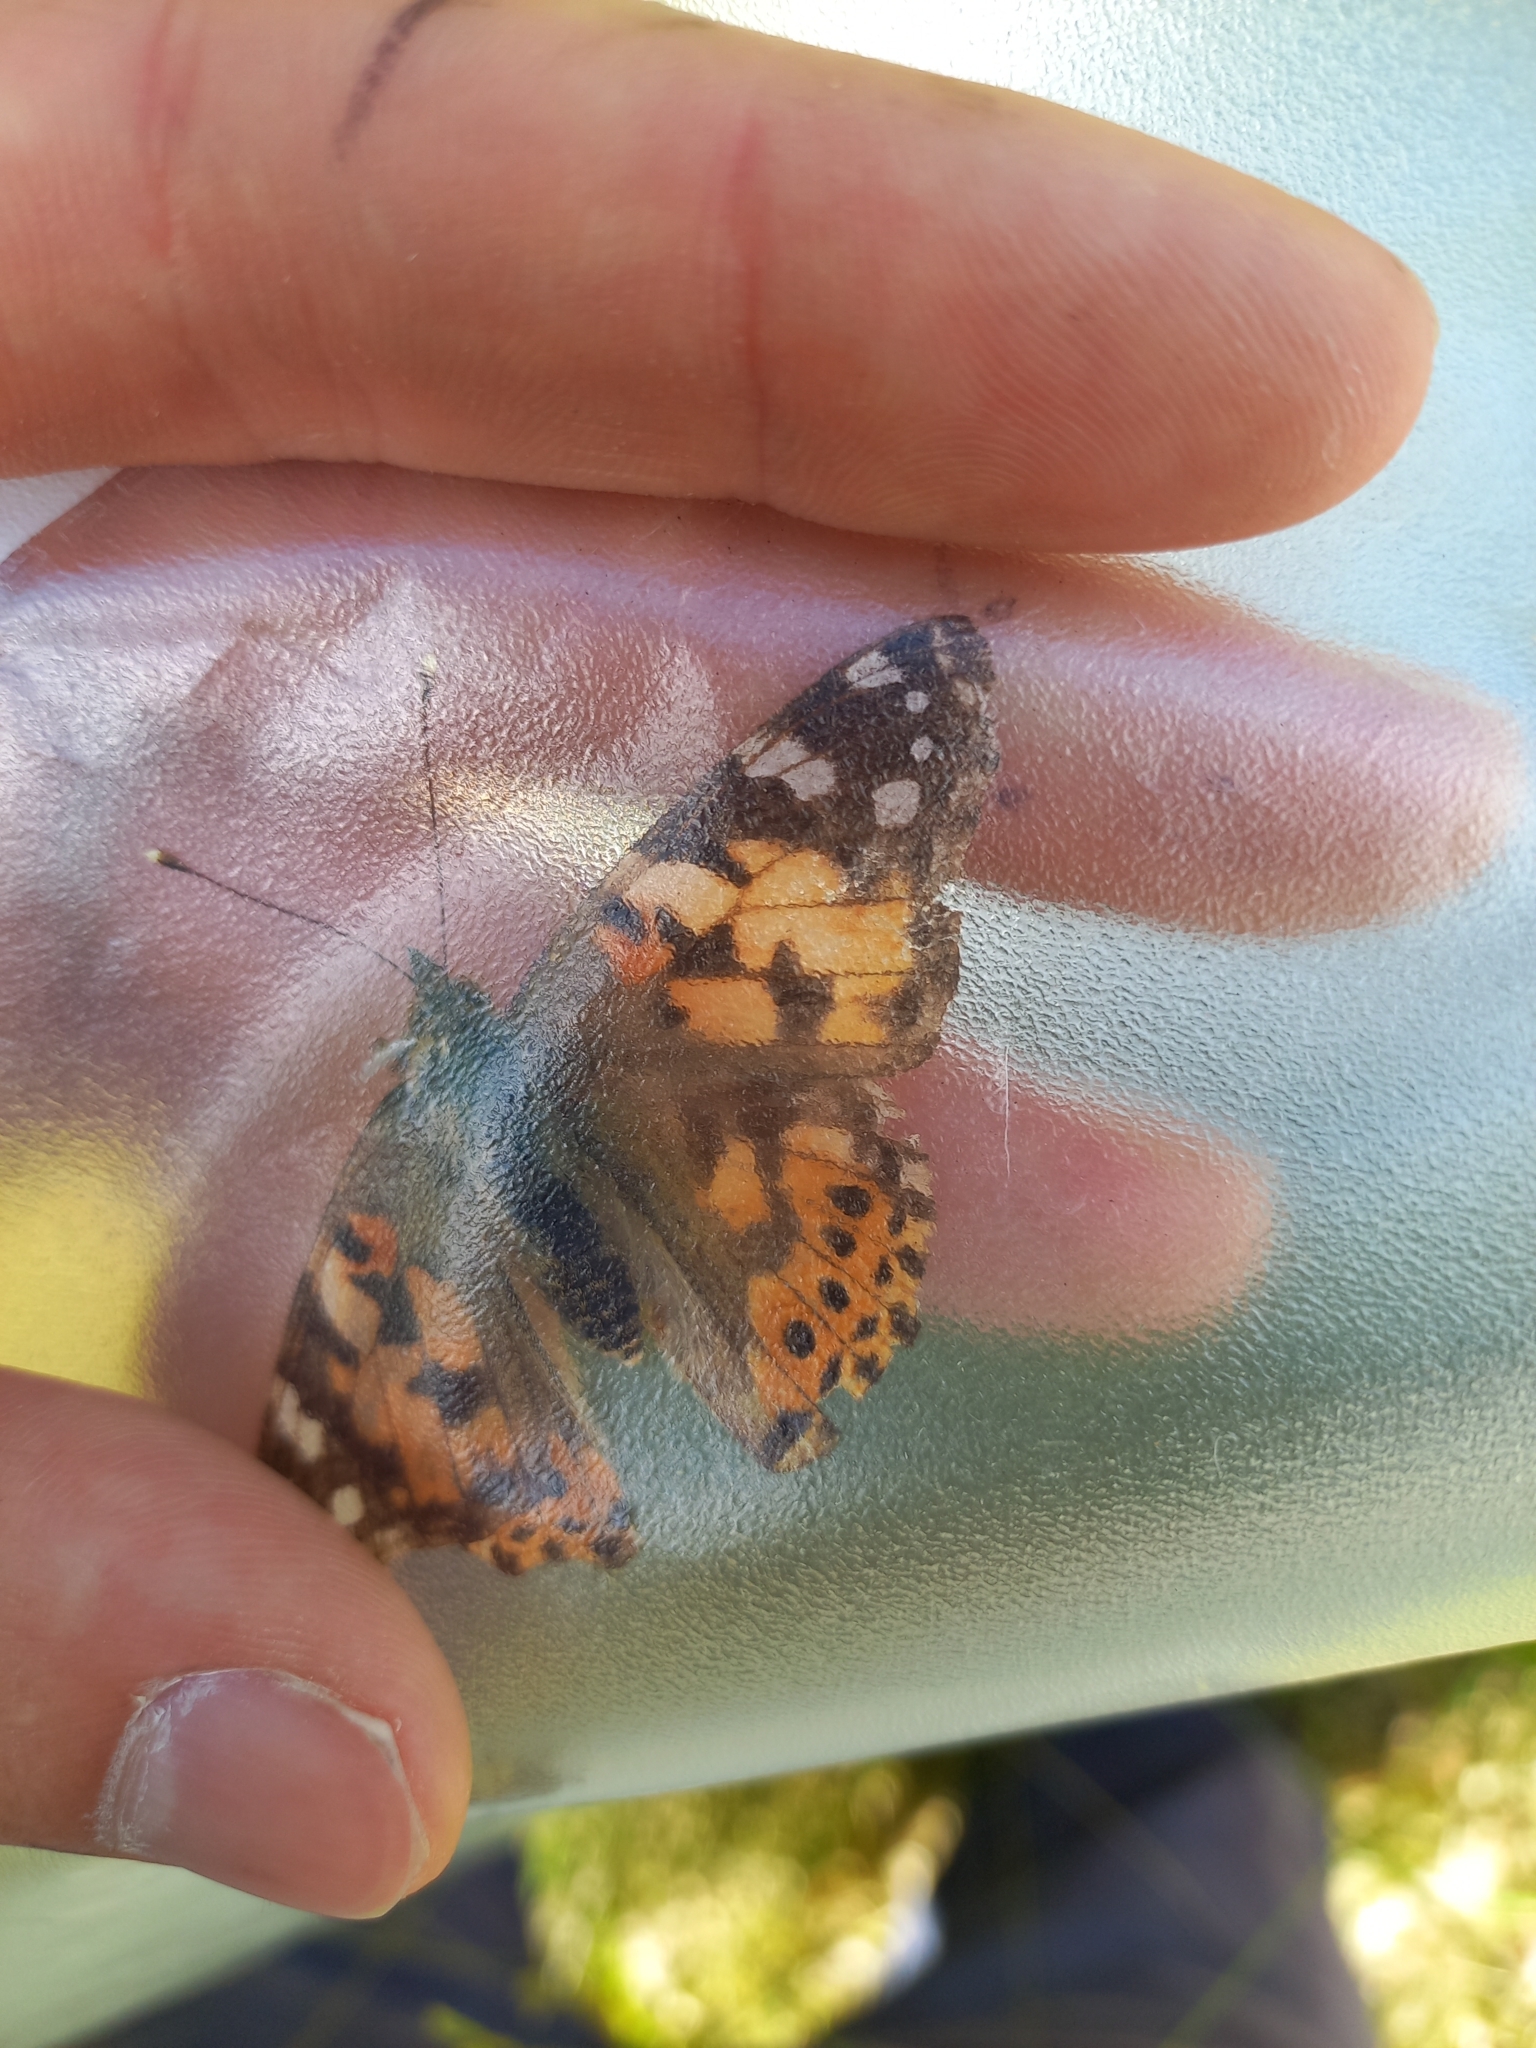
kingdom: Animalia
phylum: Arthropoda
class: Insecta
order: Lepidoptera
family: Nymphalidae
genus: Vanessa
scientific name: Vanessa cardui
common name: Painted lady
